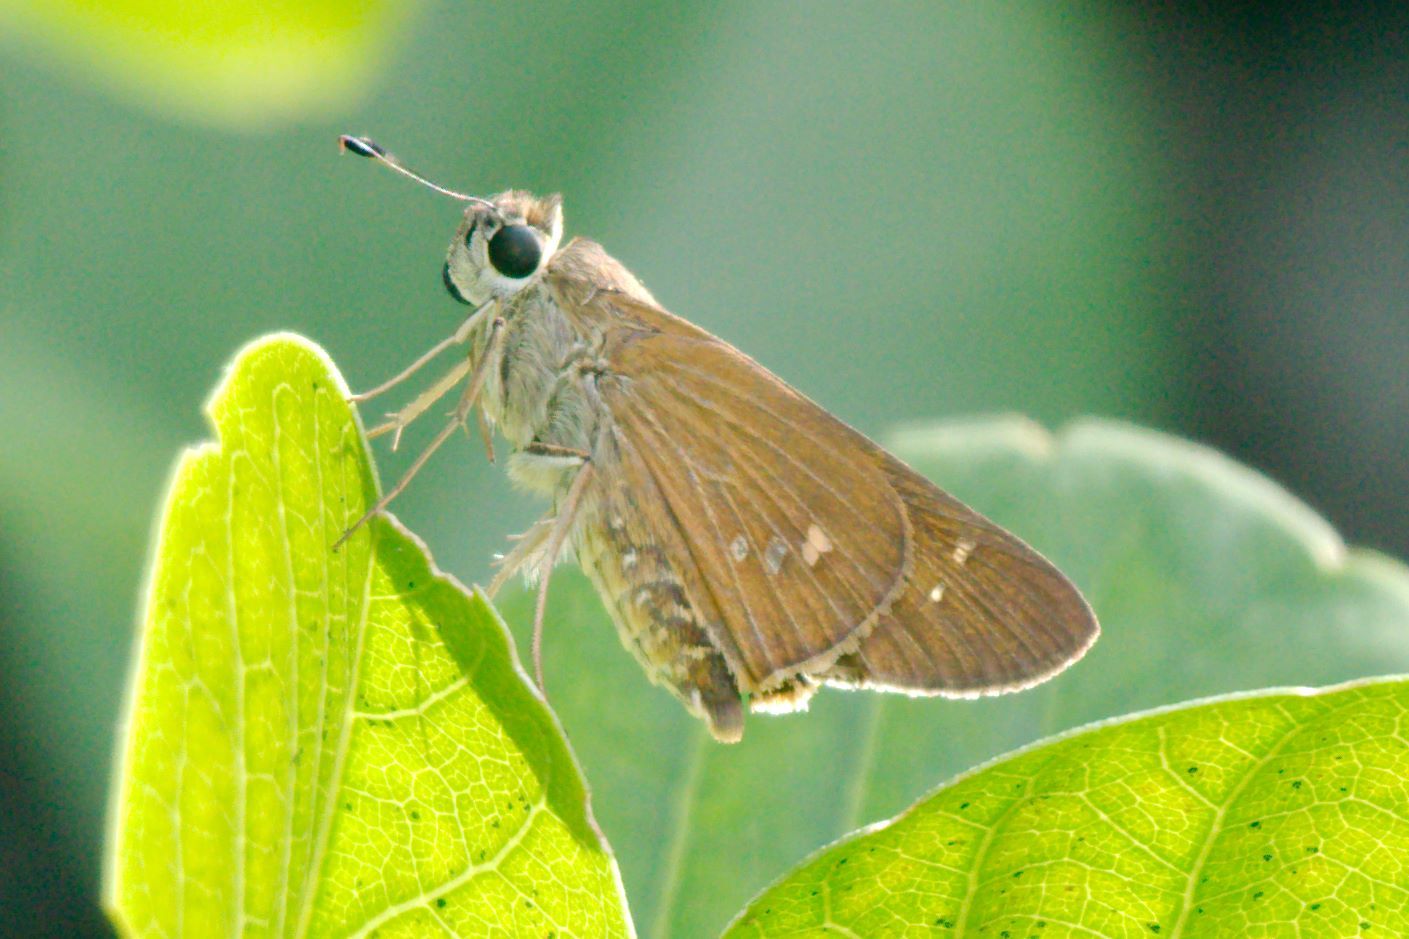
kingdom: Animalia
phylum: Arthropoda
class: Insecta
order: Lepidoptera
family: Hesperiidae
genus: Calpodes
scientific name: Calpodes ethlius
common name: Brazilian skipper
